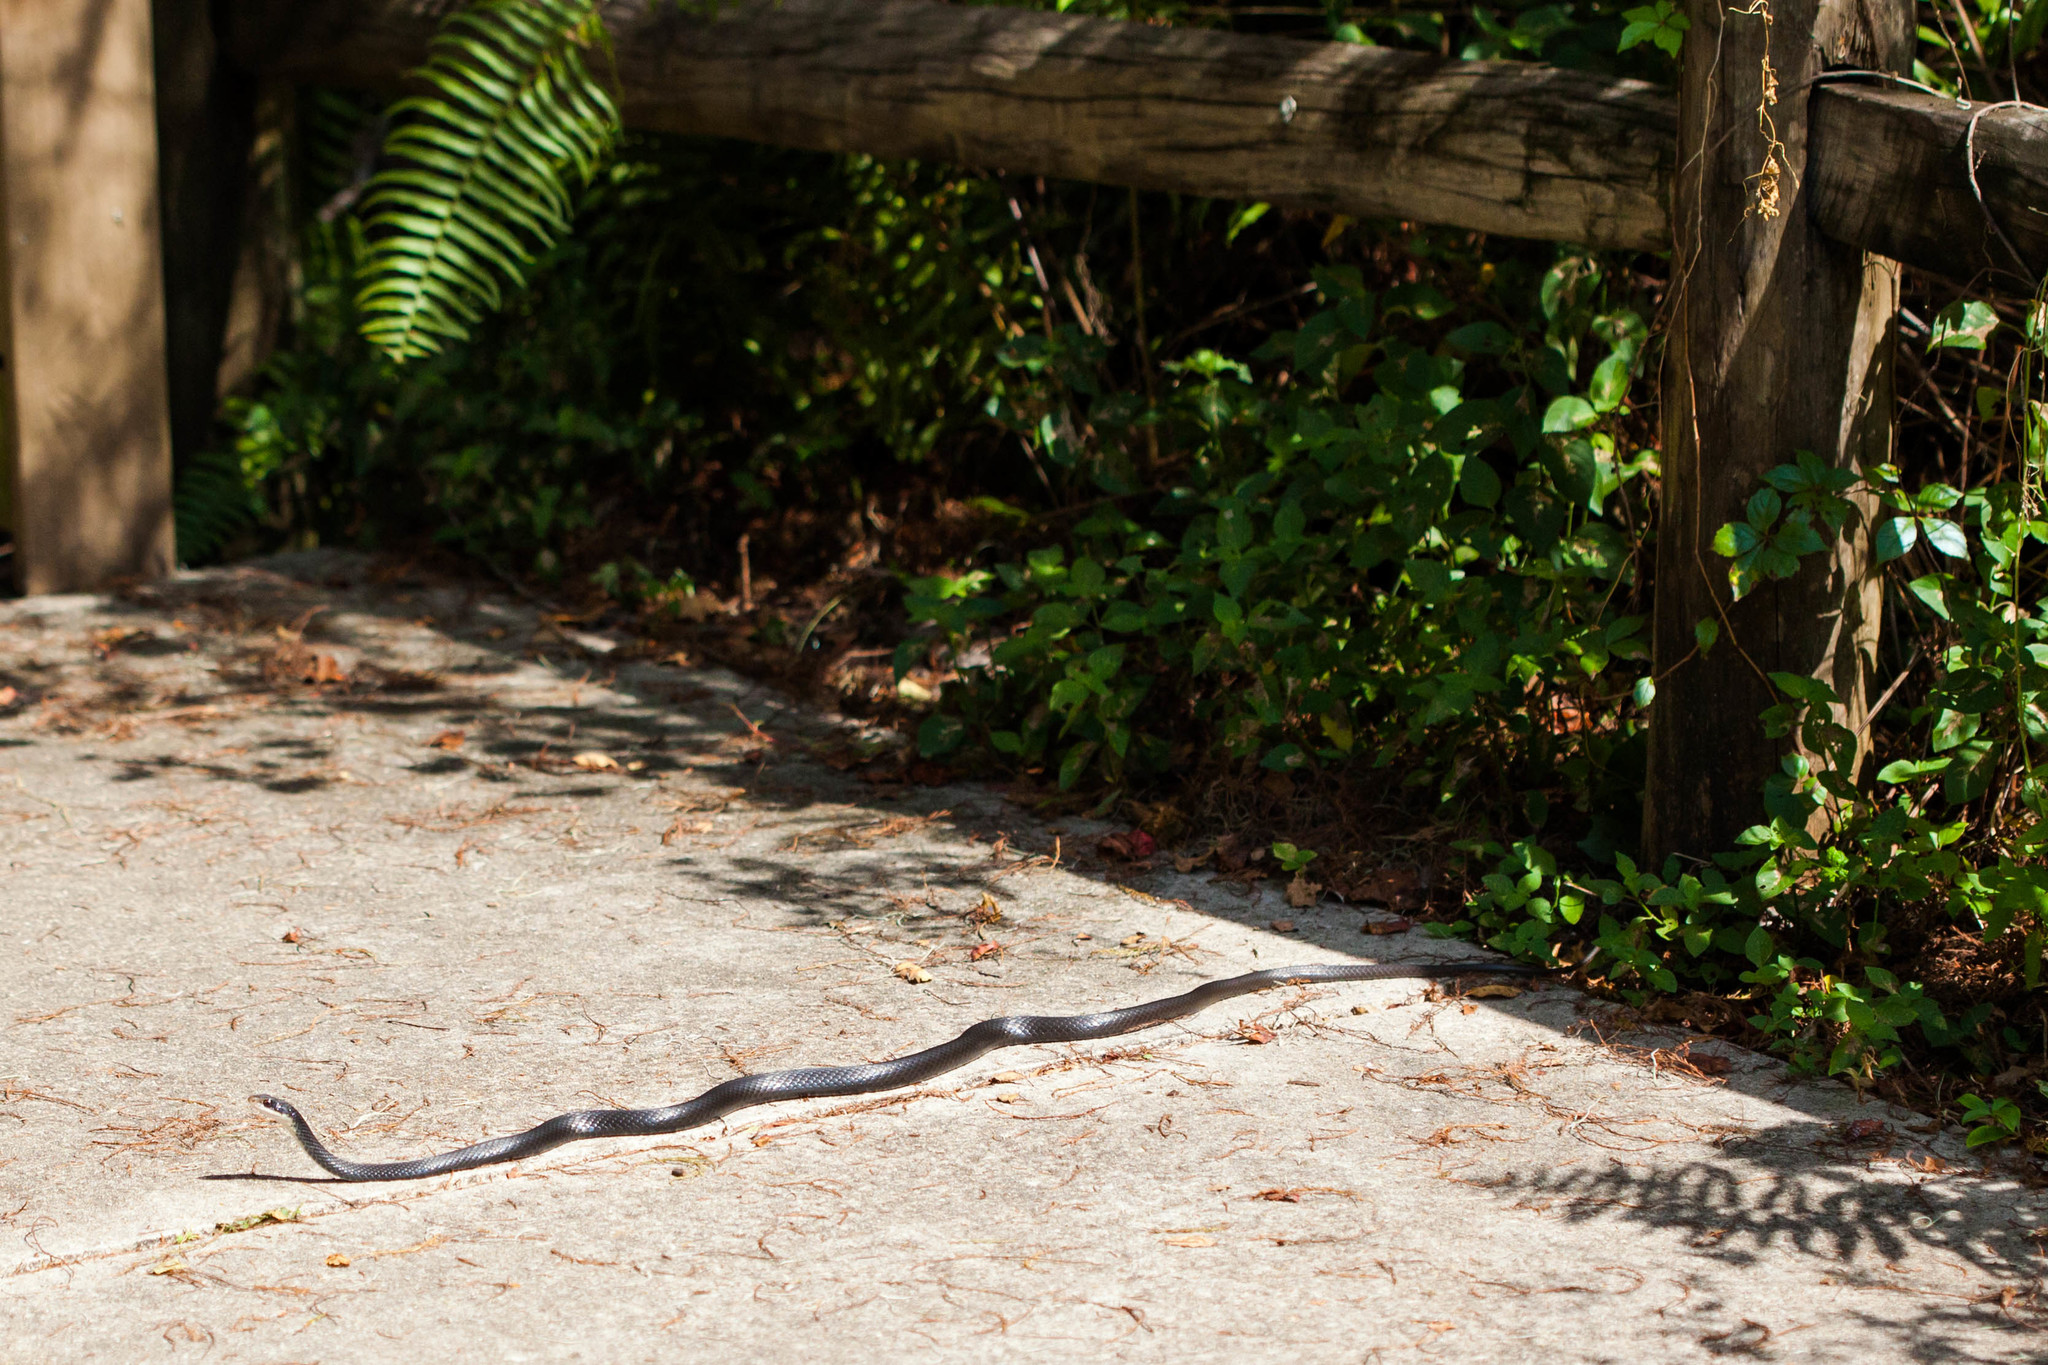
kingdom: Animalia
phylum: Chordata
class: Squamata
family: Colubridae
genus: Coluber
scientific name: Coluber constrictor
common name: Eastern racer
